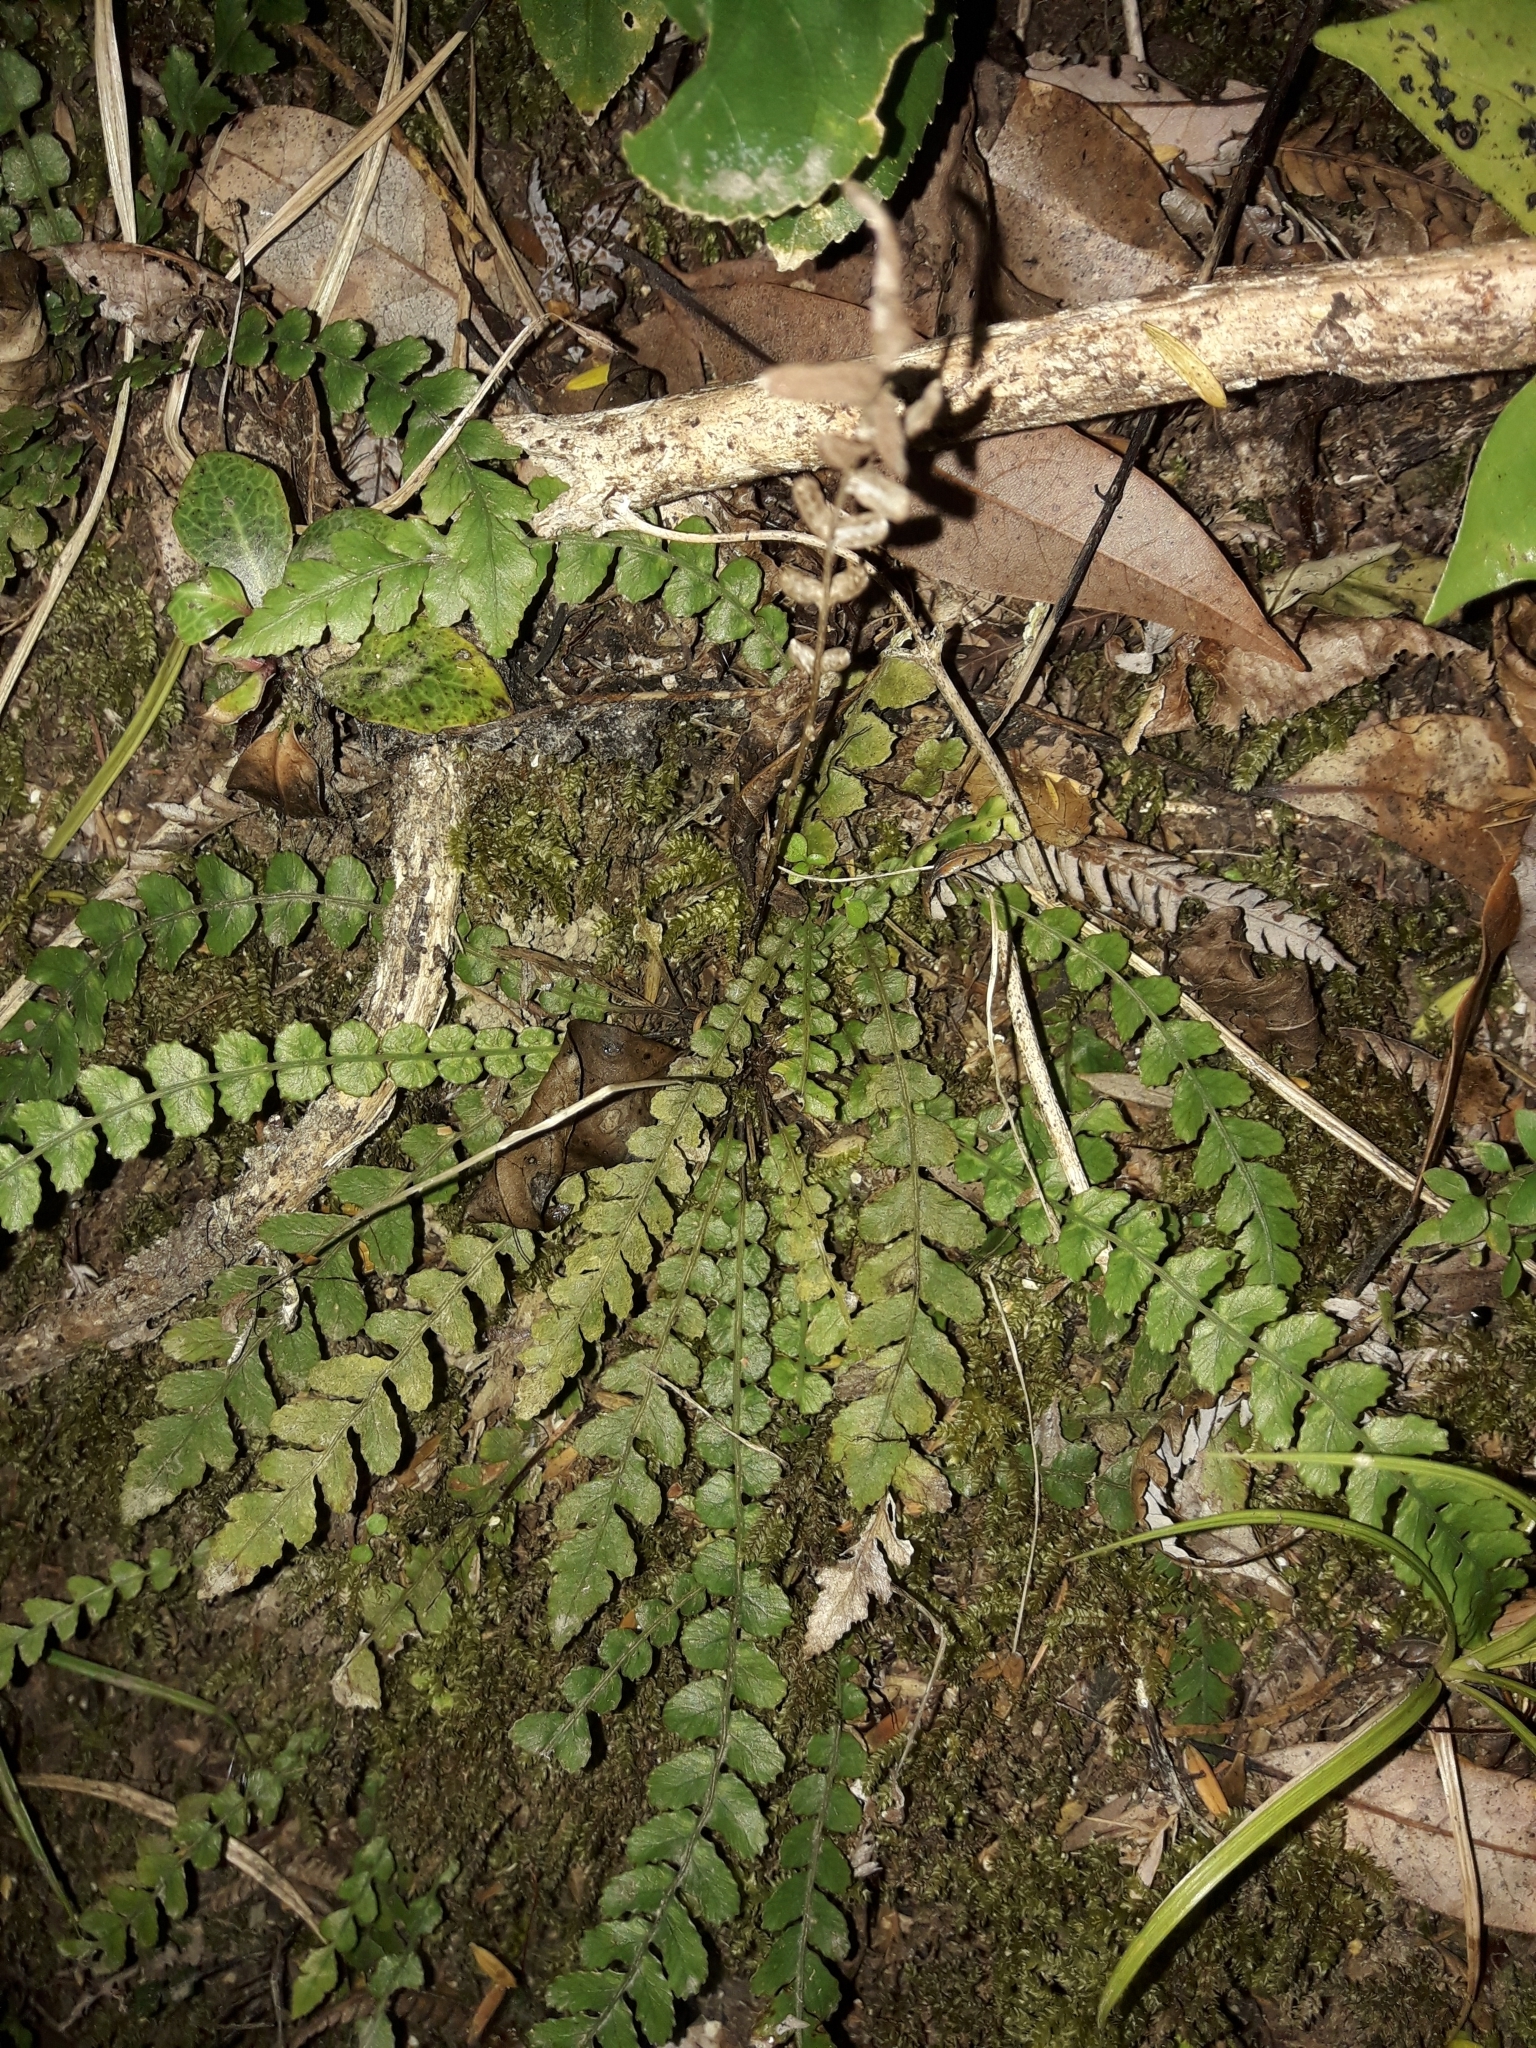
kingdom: Plantae
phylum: Tracheophyta
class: Polypodiopsida
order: Polypodiales
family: Blechnaceae
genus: Austroblechnum
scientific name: Austroblechnum membranaceum
